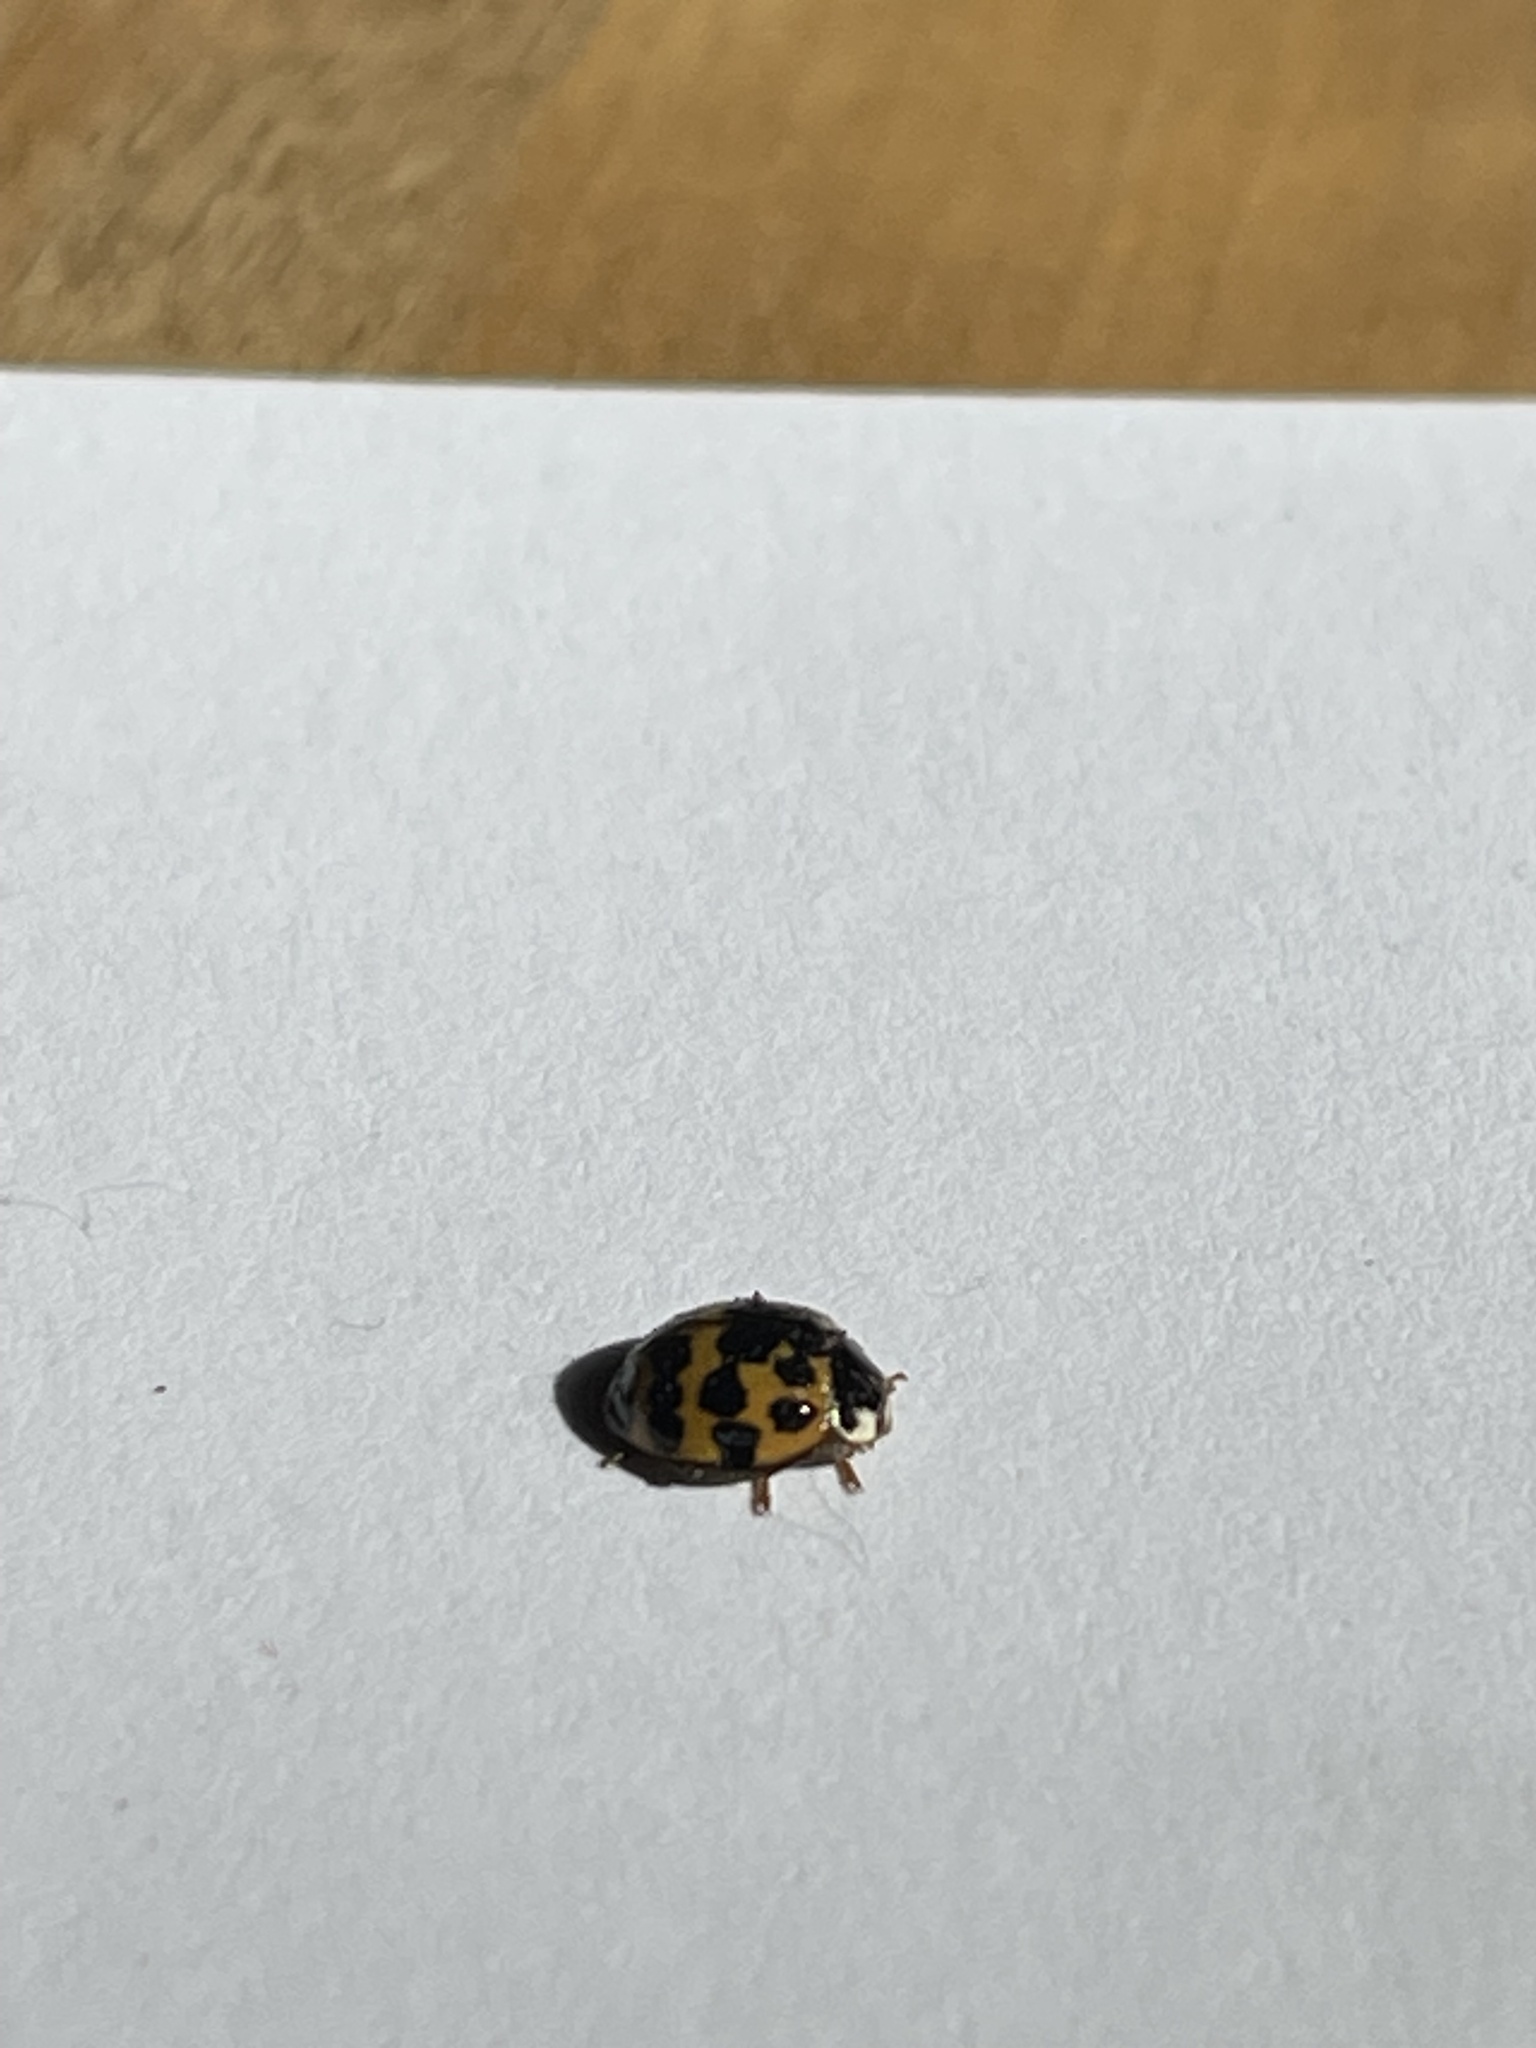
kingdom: Animalia
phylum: Arthropoda
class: Insecta
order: Coleoptera
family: Coccinellidae
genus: Harmonia
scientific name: Harmonia axyridis
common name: Harlequin ladybird
